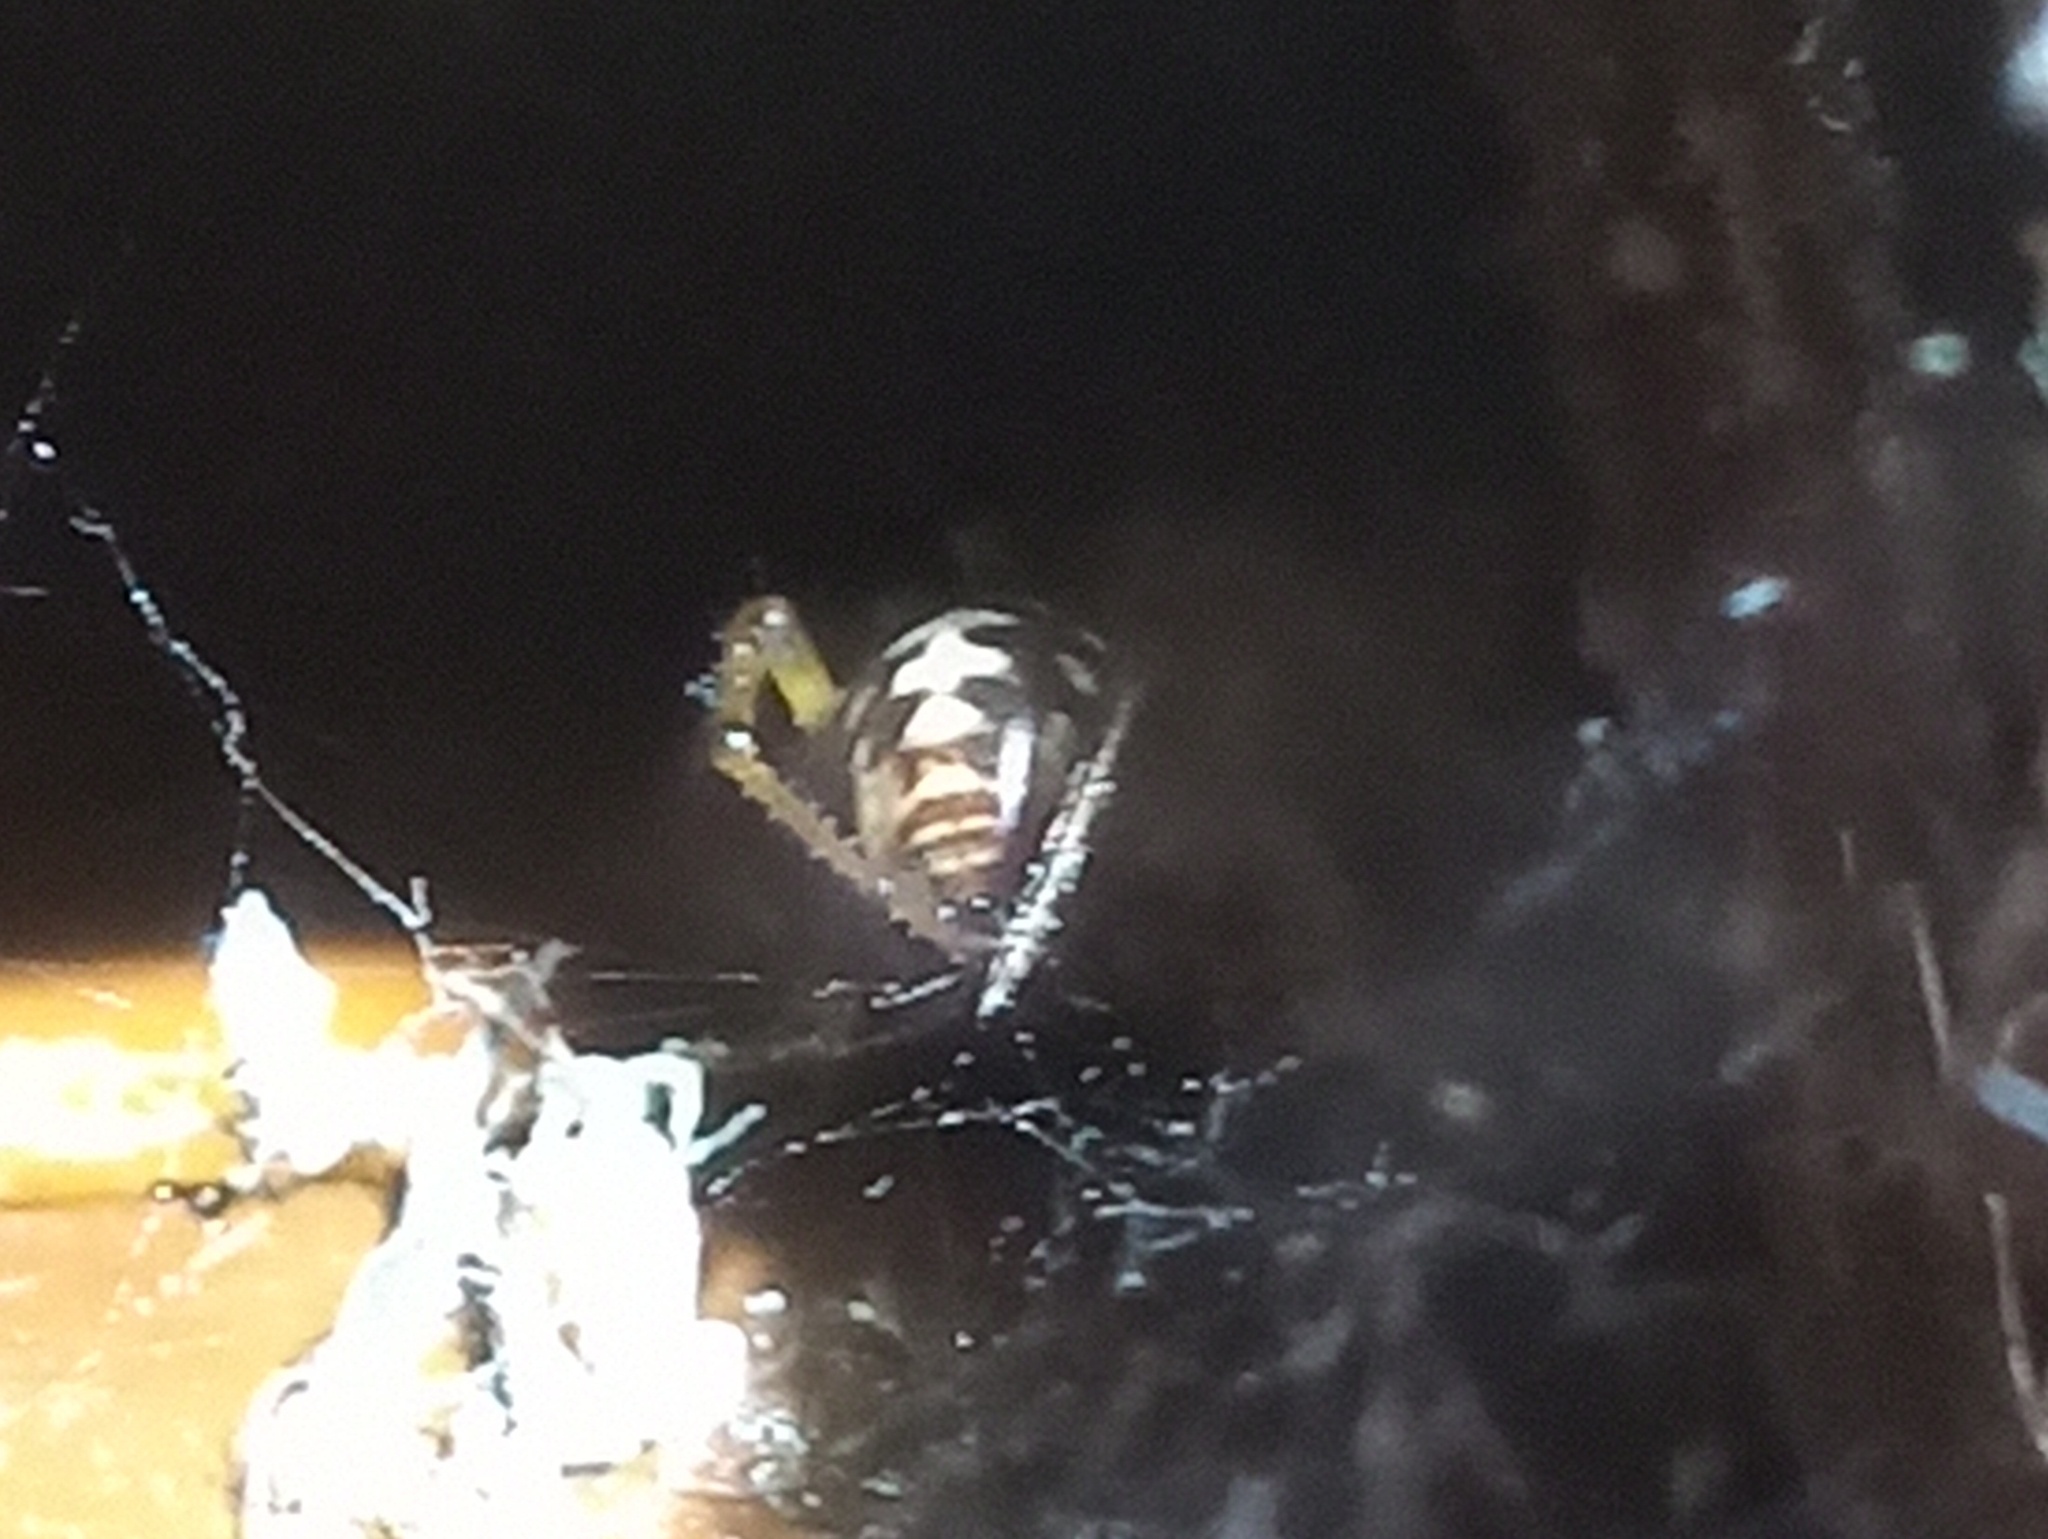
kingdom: Animalia
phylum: Arthropoda
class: Arachnida
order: Araneae
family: Theridiidae
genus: Steatoda
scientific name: Steatoda triangulosa
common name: Triangulate bud spider
